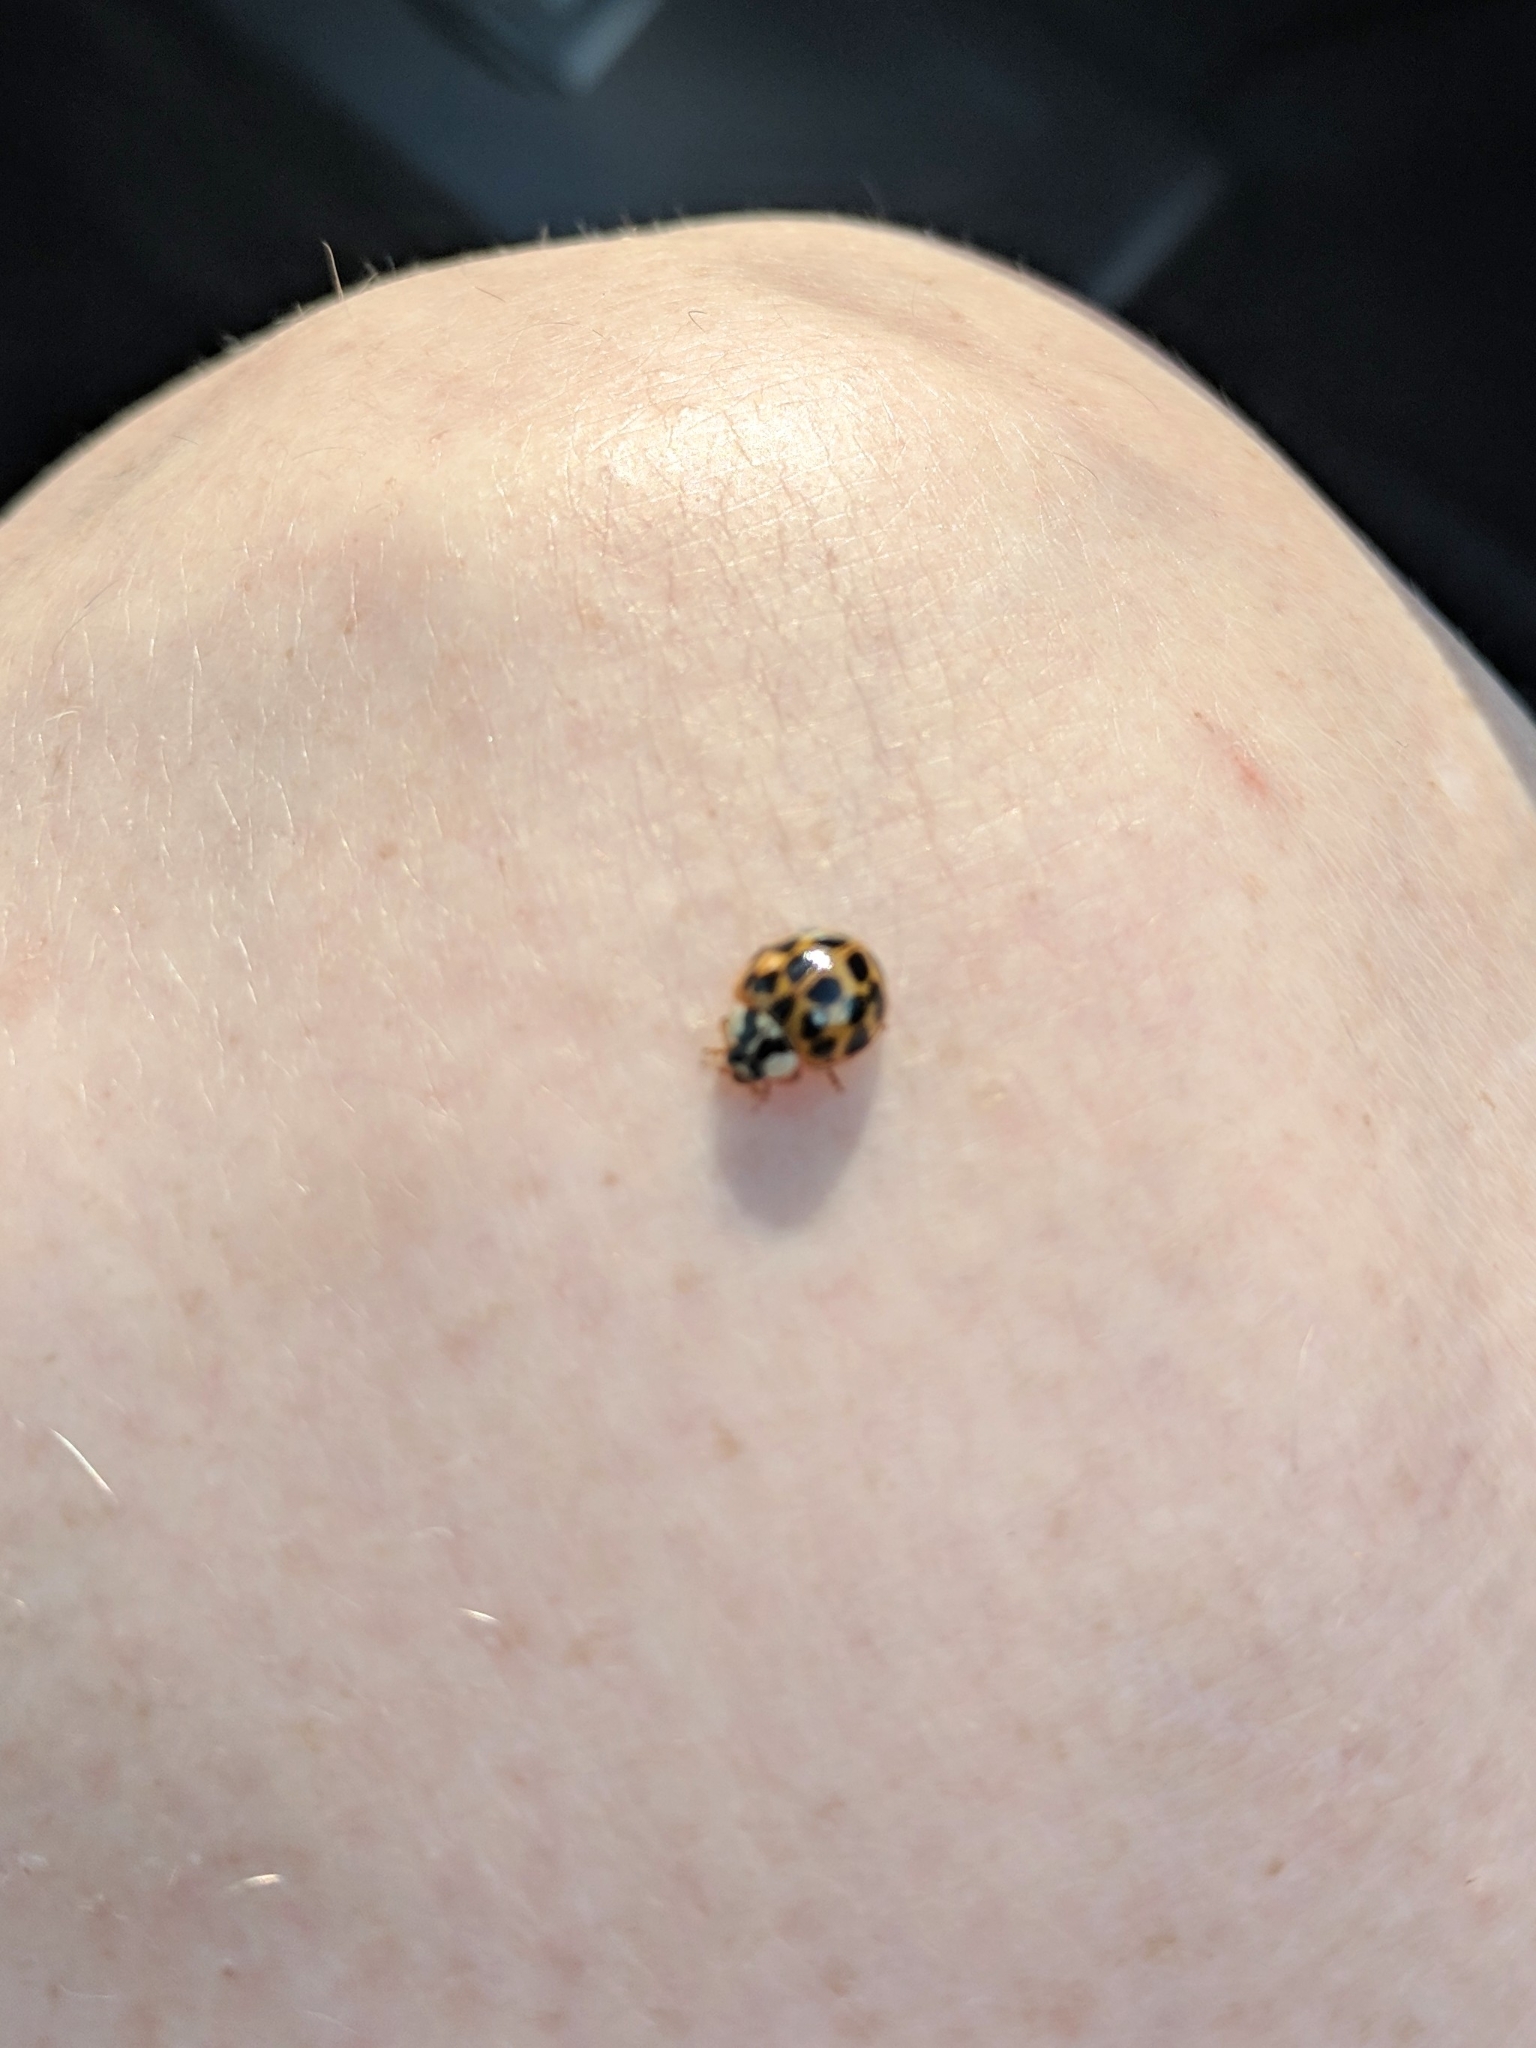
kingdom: Animalia
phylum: Arthropoda
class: Insecta
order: Coleoptera
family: Coccinellidae
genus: Harmonia
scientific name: Harmonia axyridis
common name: Harlequin ladybird
